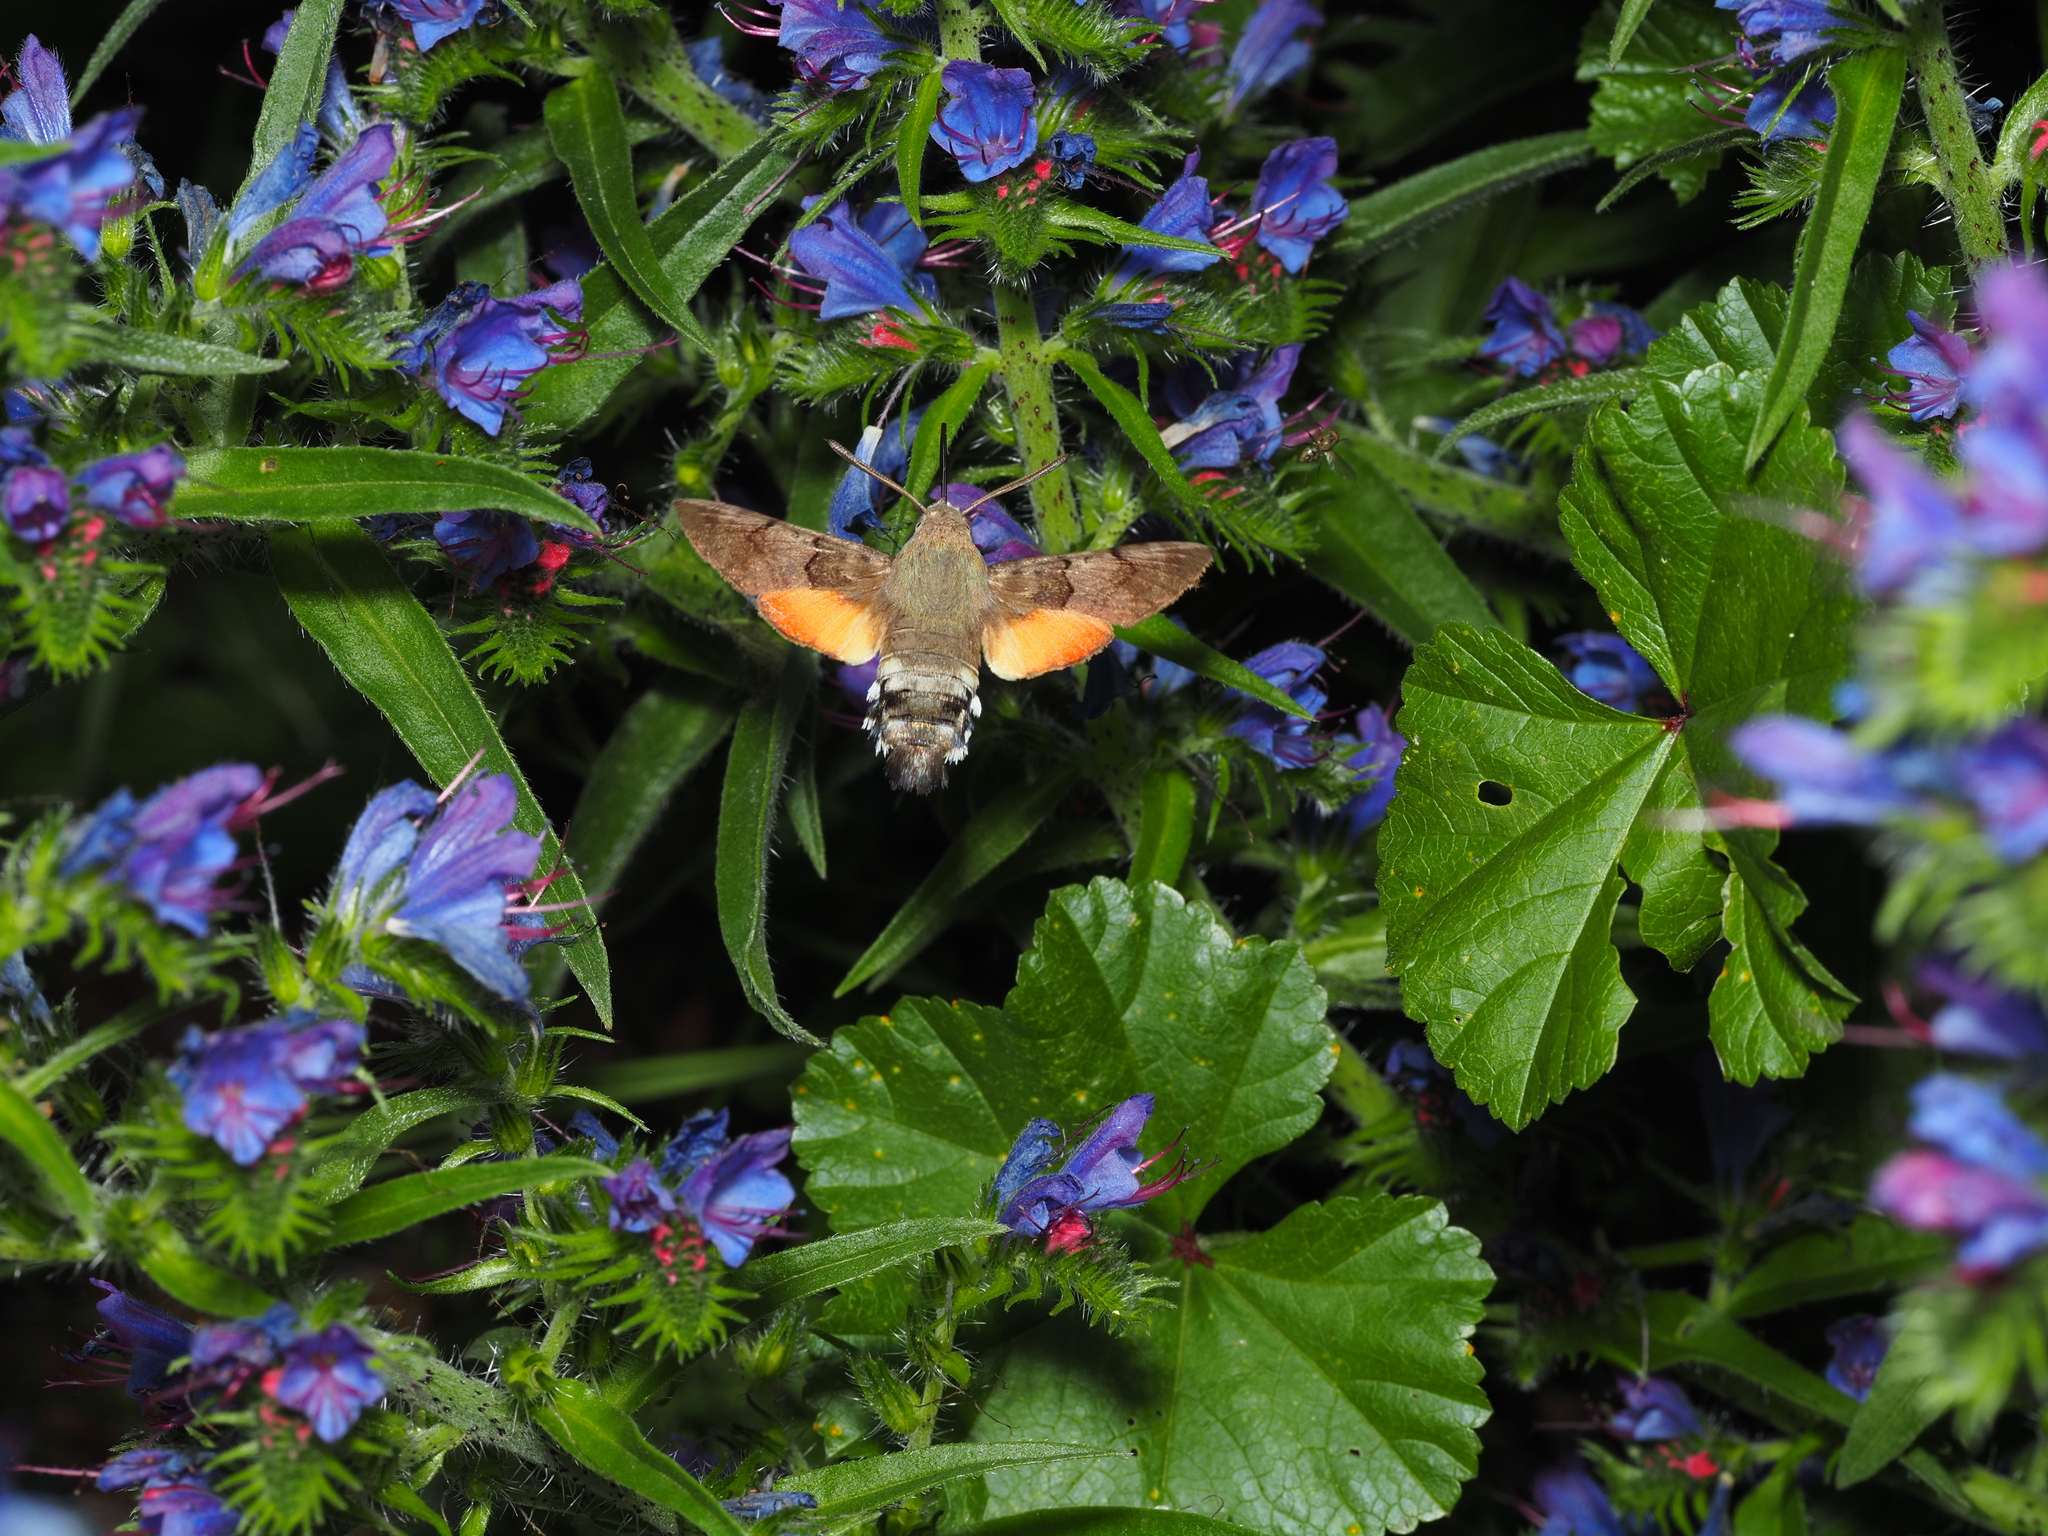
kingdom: Animalia
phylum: Arthropoda
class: Insecta
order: Lepidoptera
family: Sphingidae
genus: Macroglossum
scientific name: Macroglossum stellatarum
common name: Humming-bird hawk-moth
